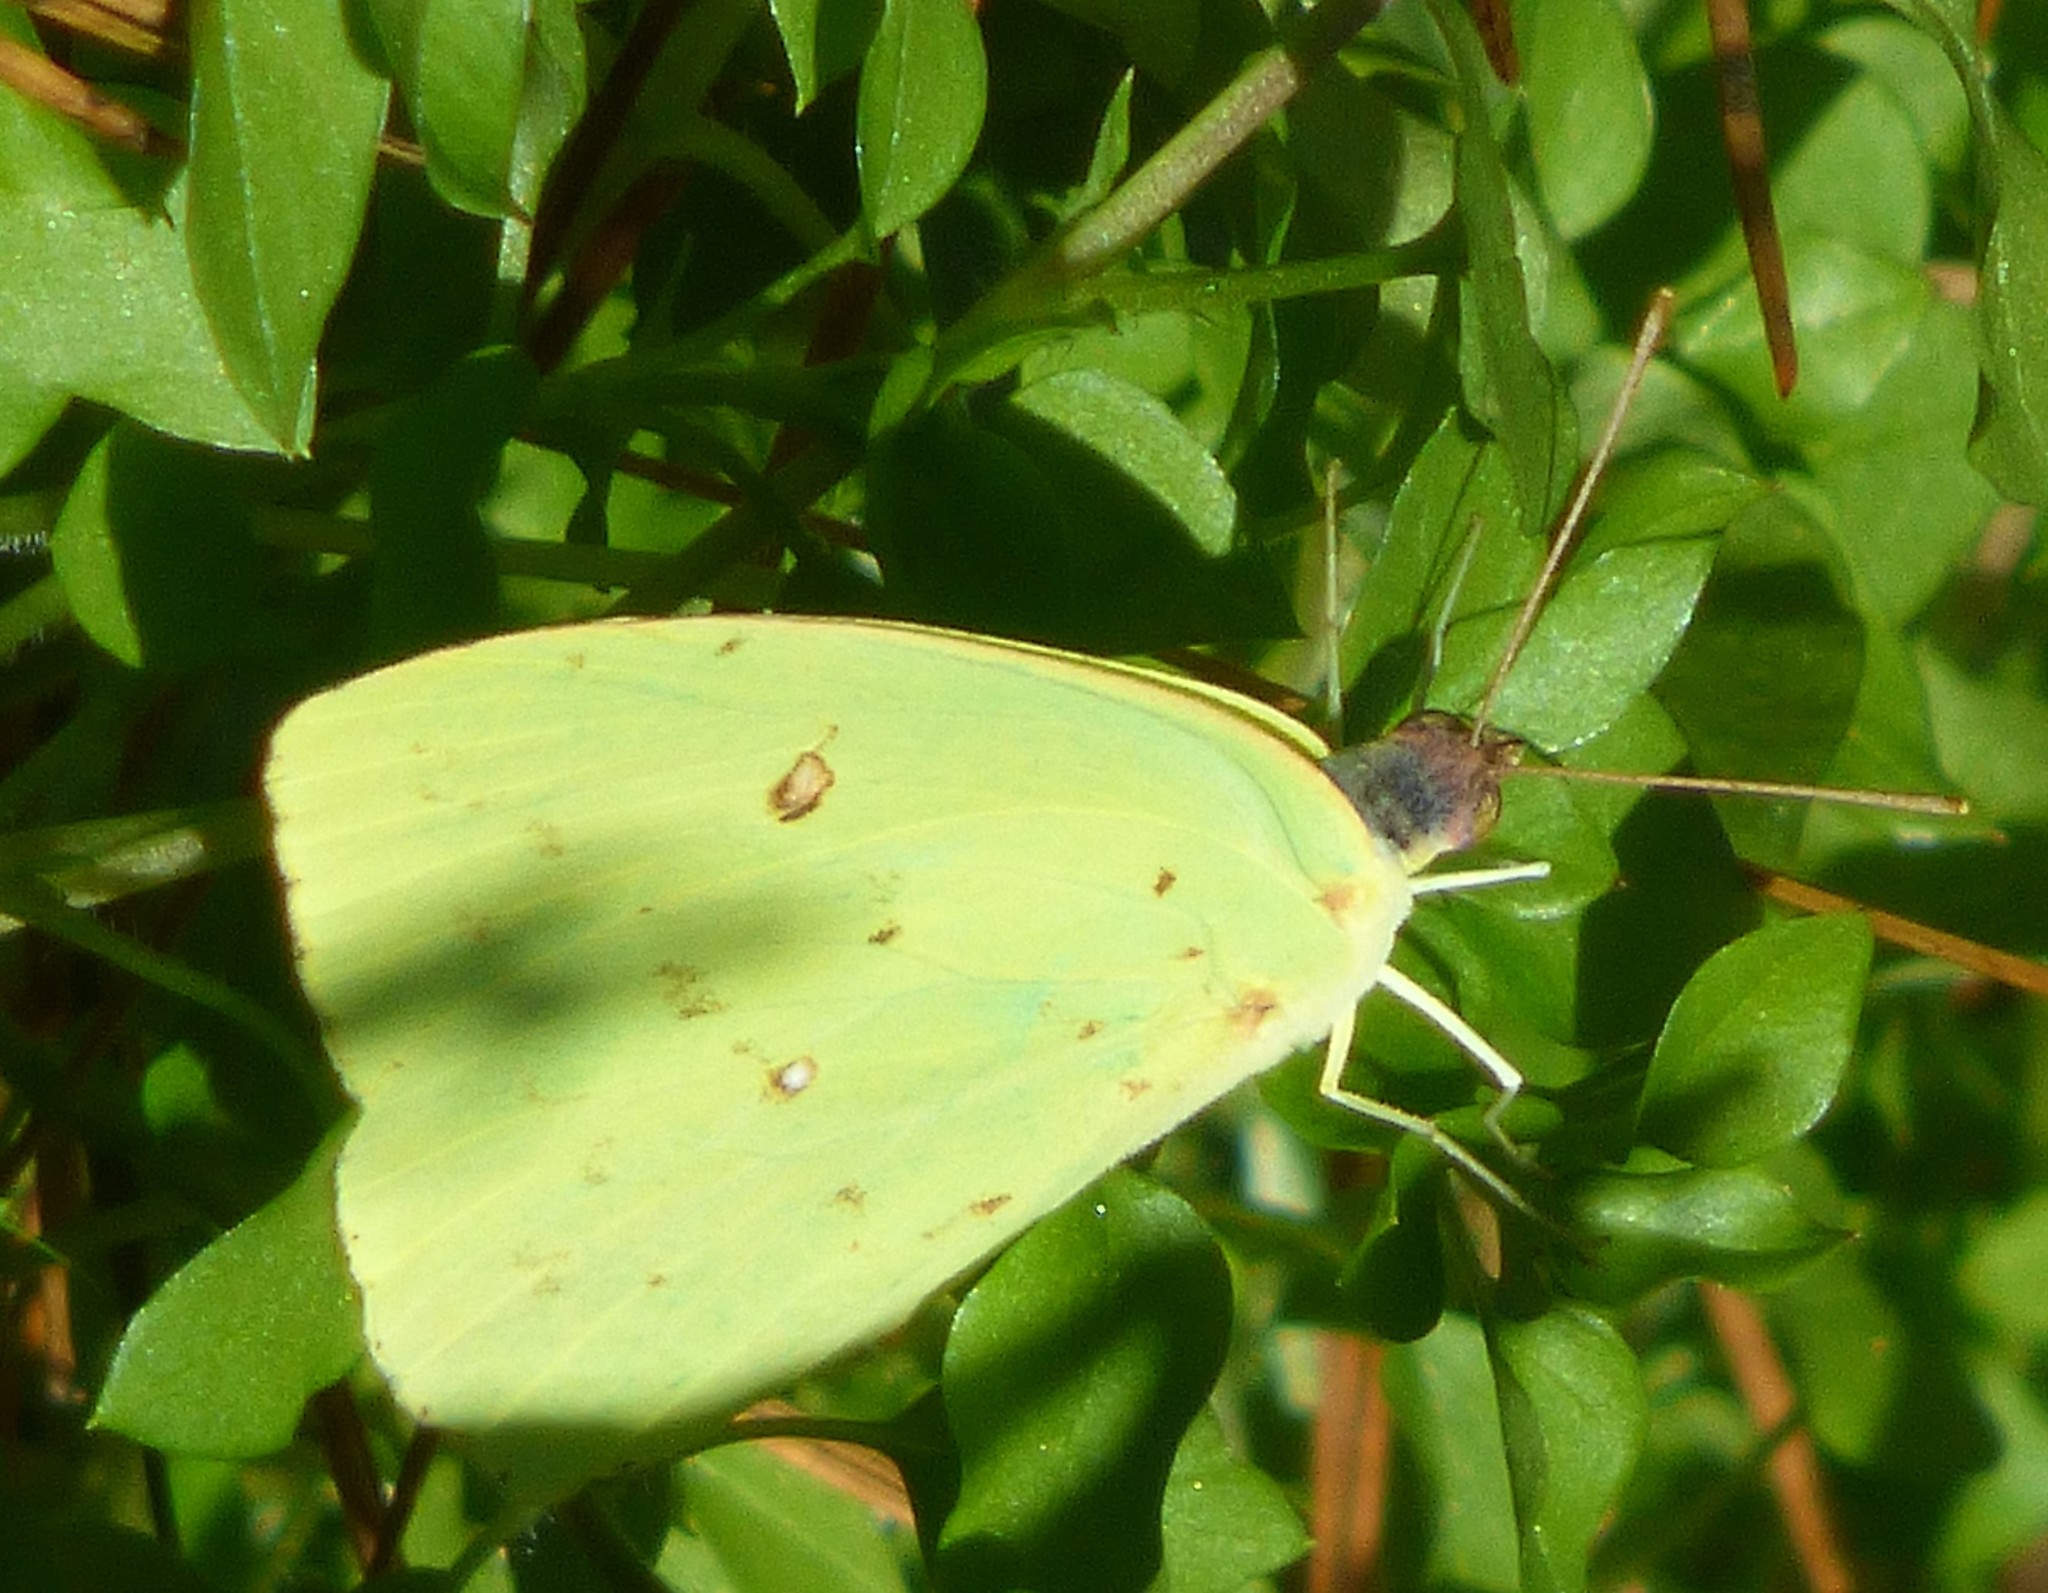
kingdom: Animalia
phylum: Arthropoda
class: Insecta
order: Lepidoptera
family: Pieridae
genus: Phoebis
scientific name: Phoebis sennae
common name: Cloudless sulphur
